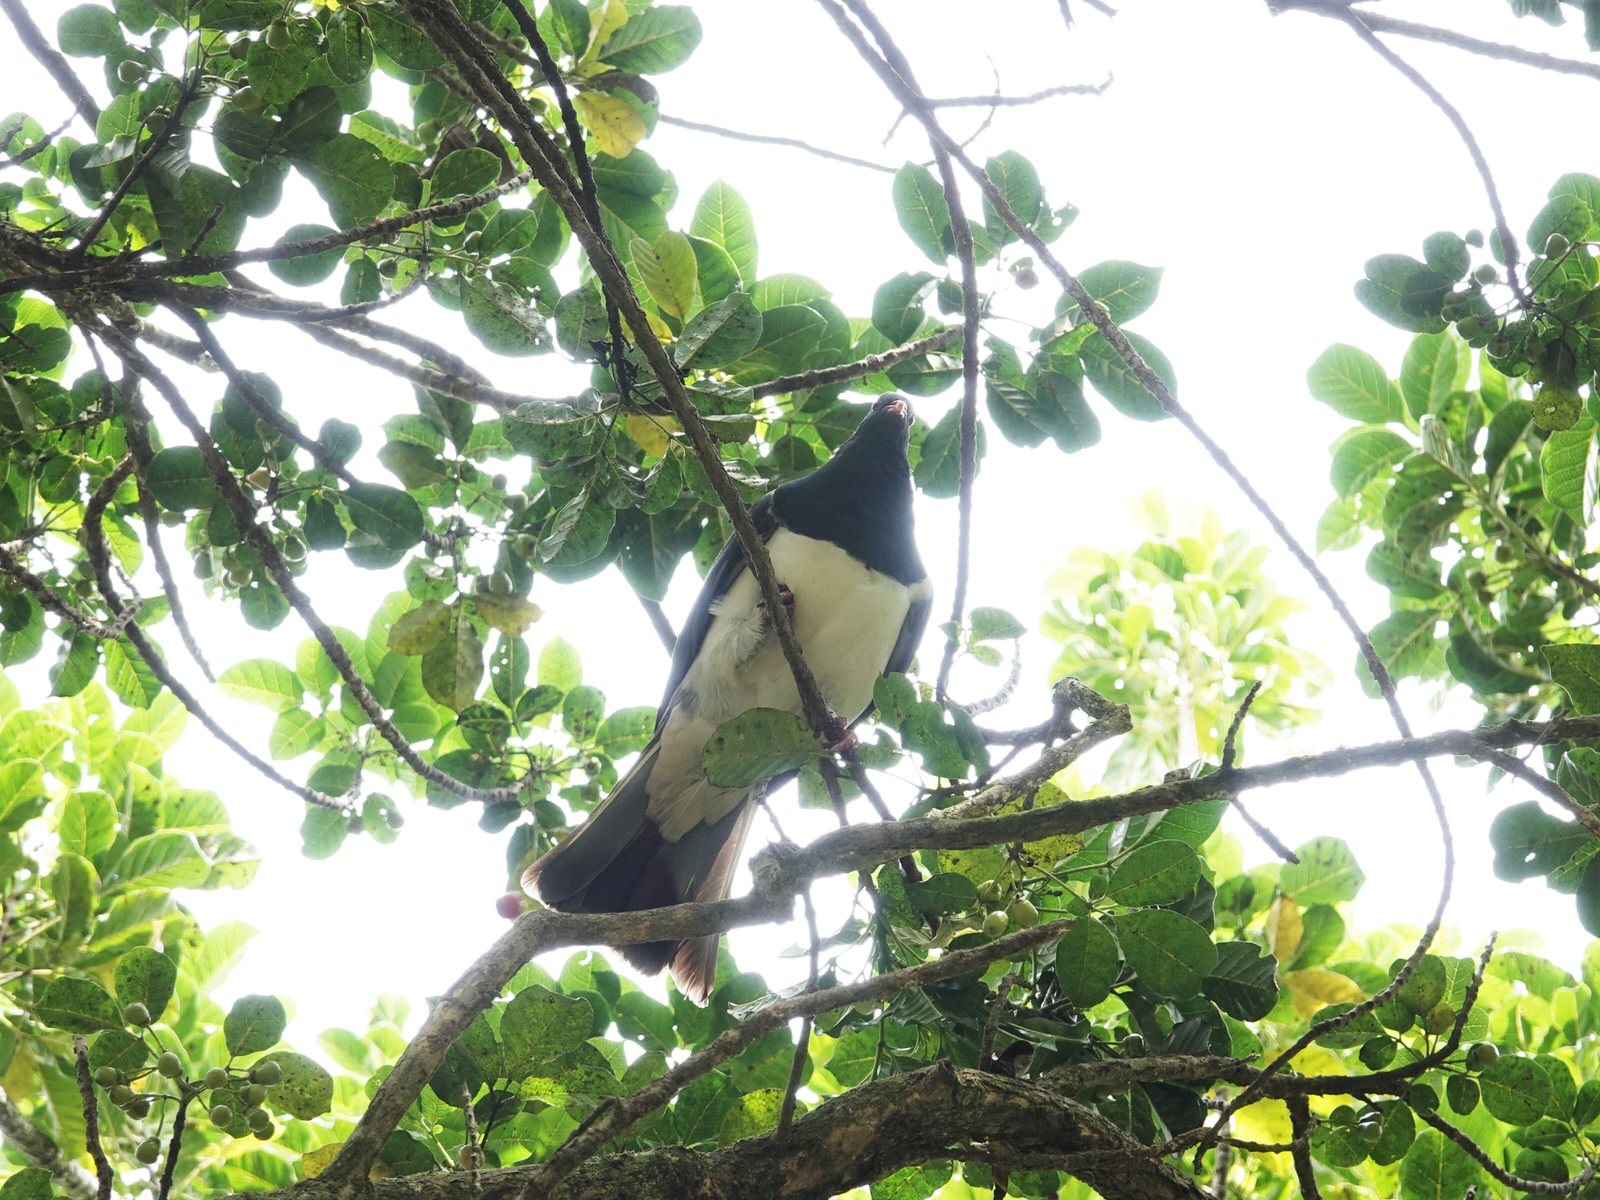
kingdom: Animalia
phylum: Chordata
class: Aves
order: Columbiformes
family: Columbidae
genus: Hemiphaga
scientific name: Hemiphaga novaeseelandiae
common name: New zealand pigeon
